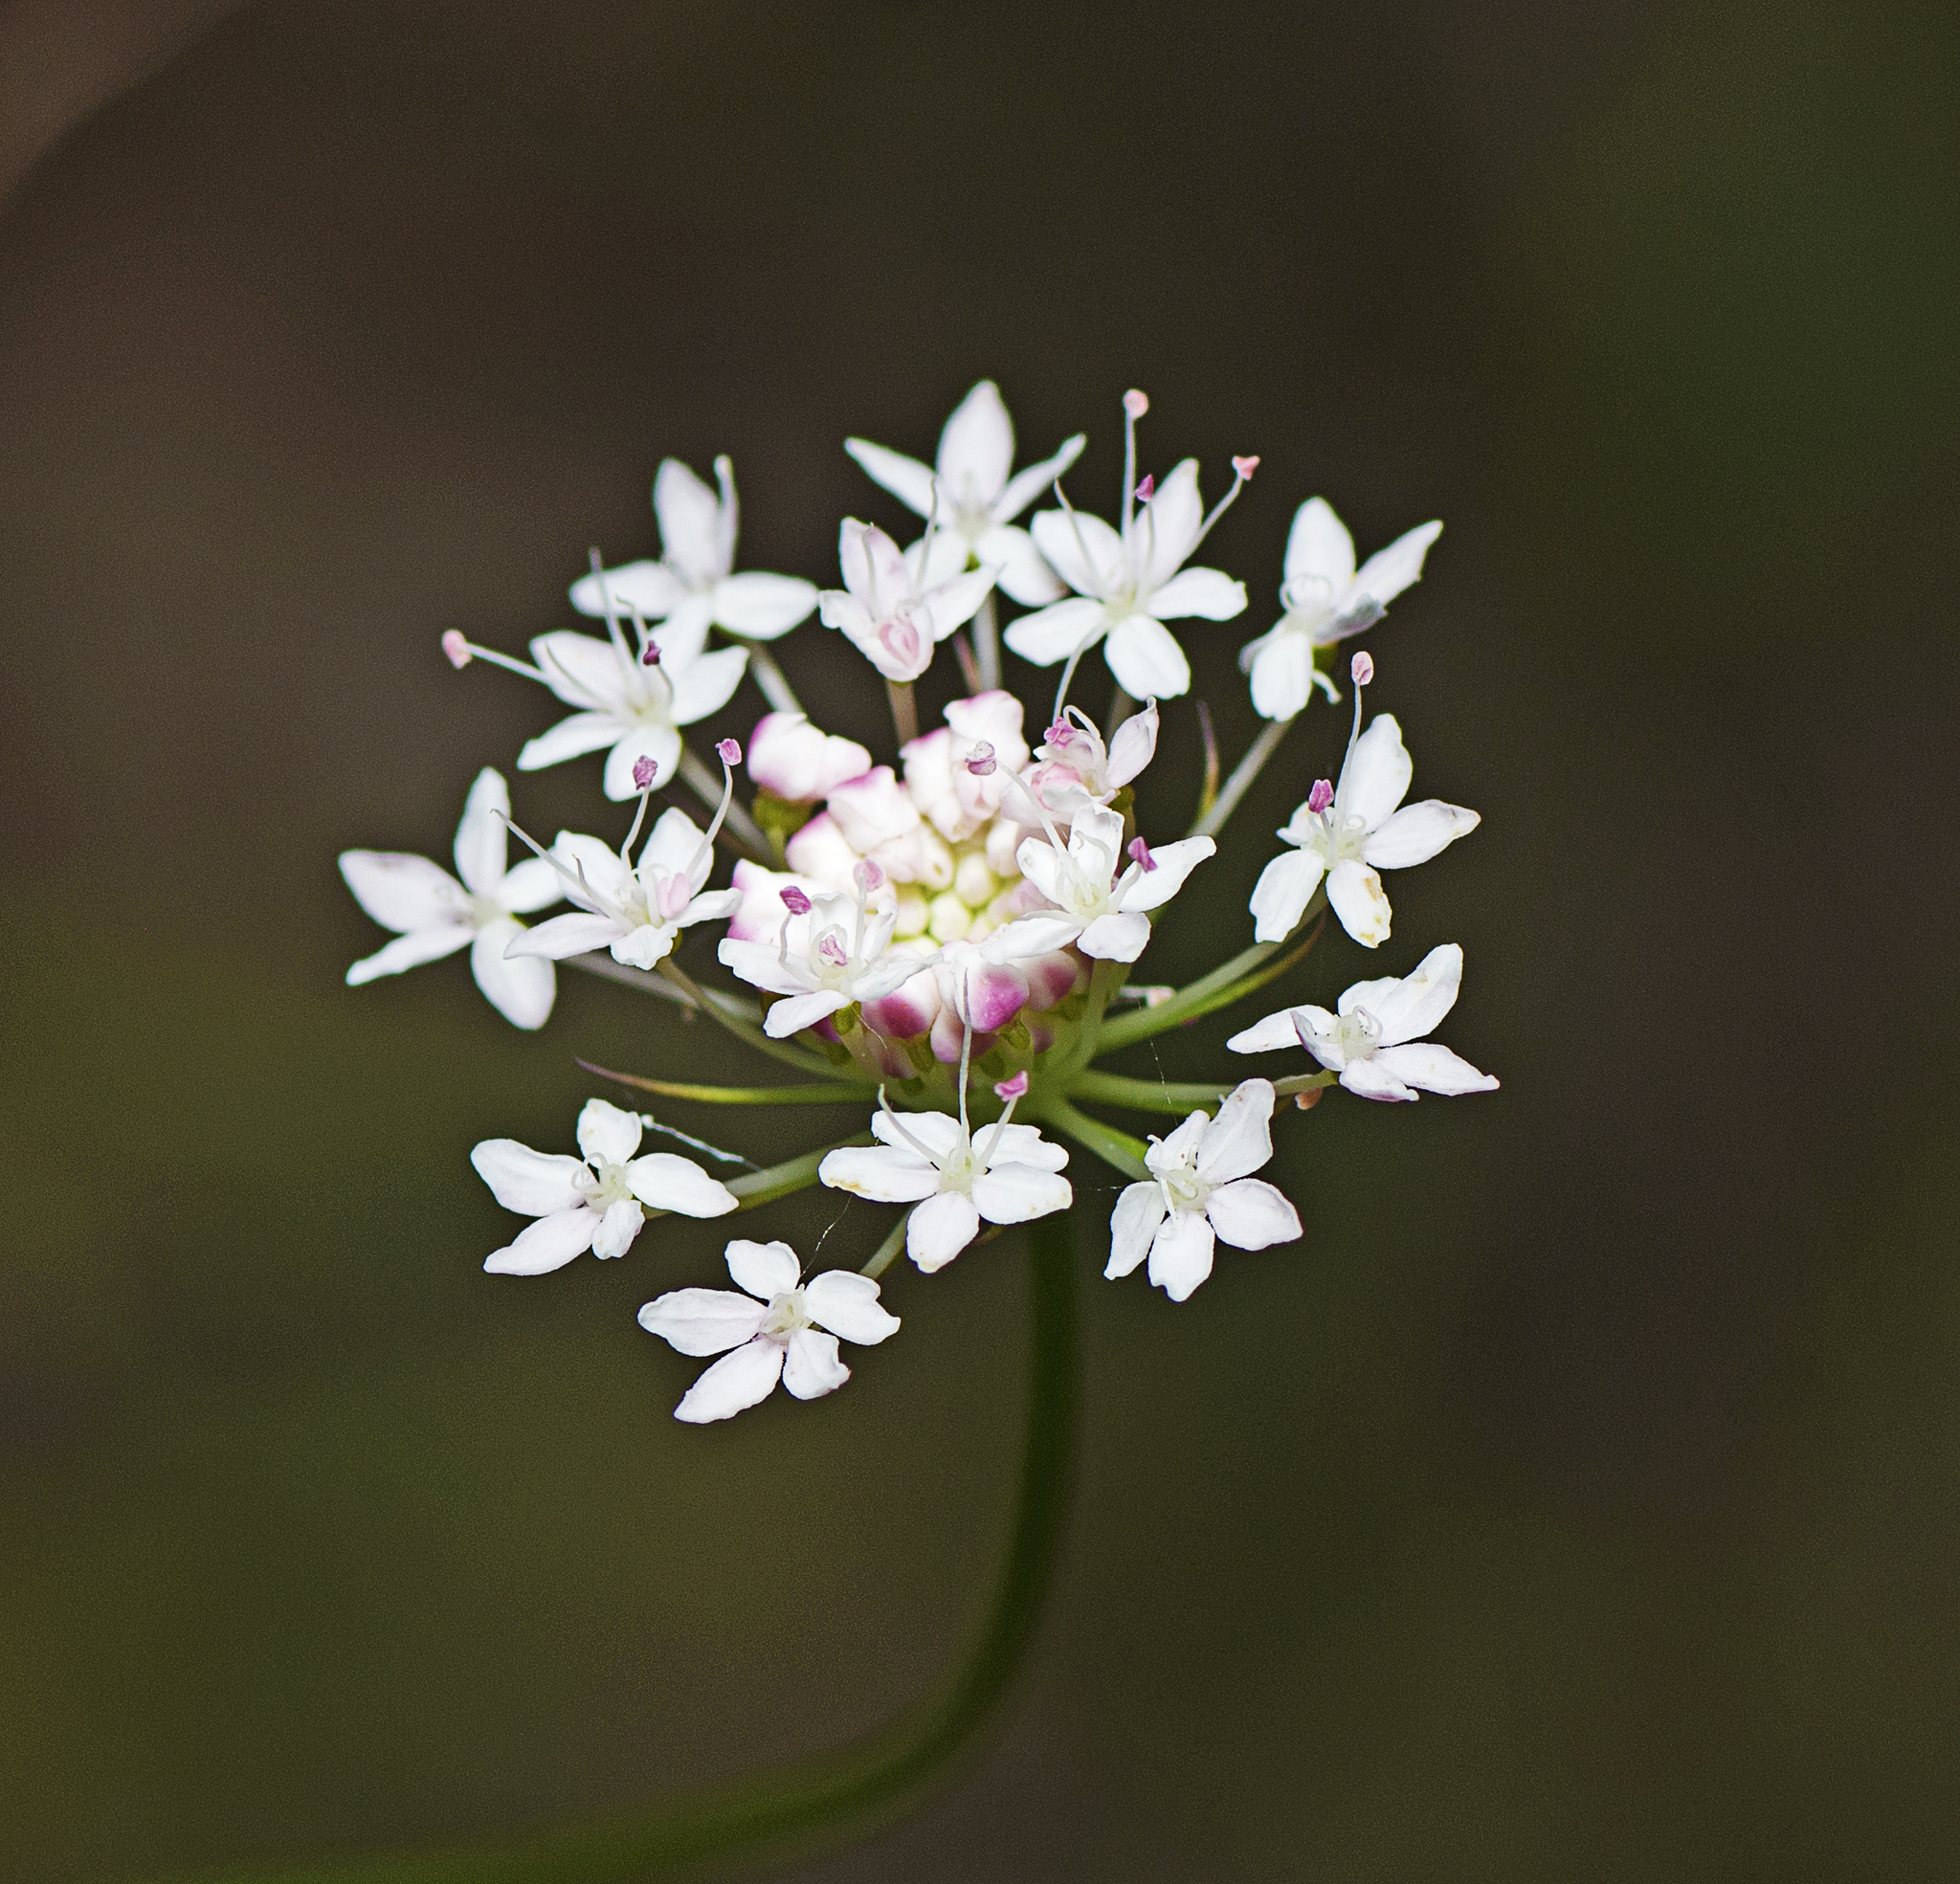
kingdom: Plantae
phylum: Tracheophyta
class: Magnoliopsida
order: Apiales
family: Araliaceae
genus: Trachymene
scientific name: Trachymene incisa
